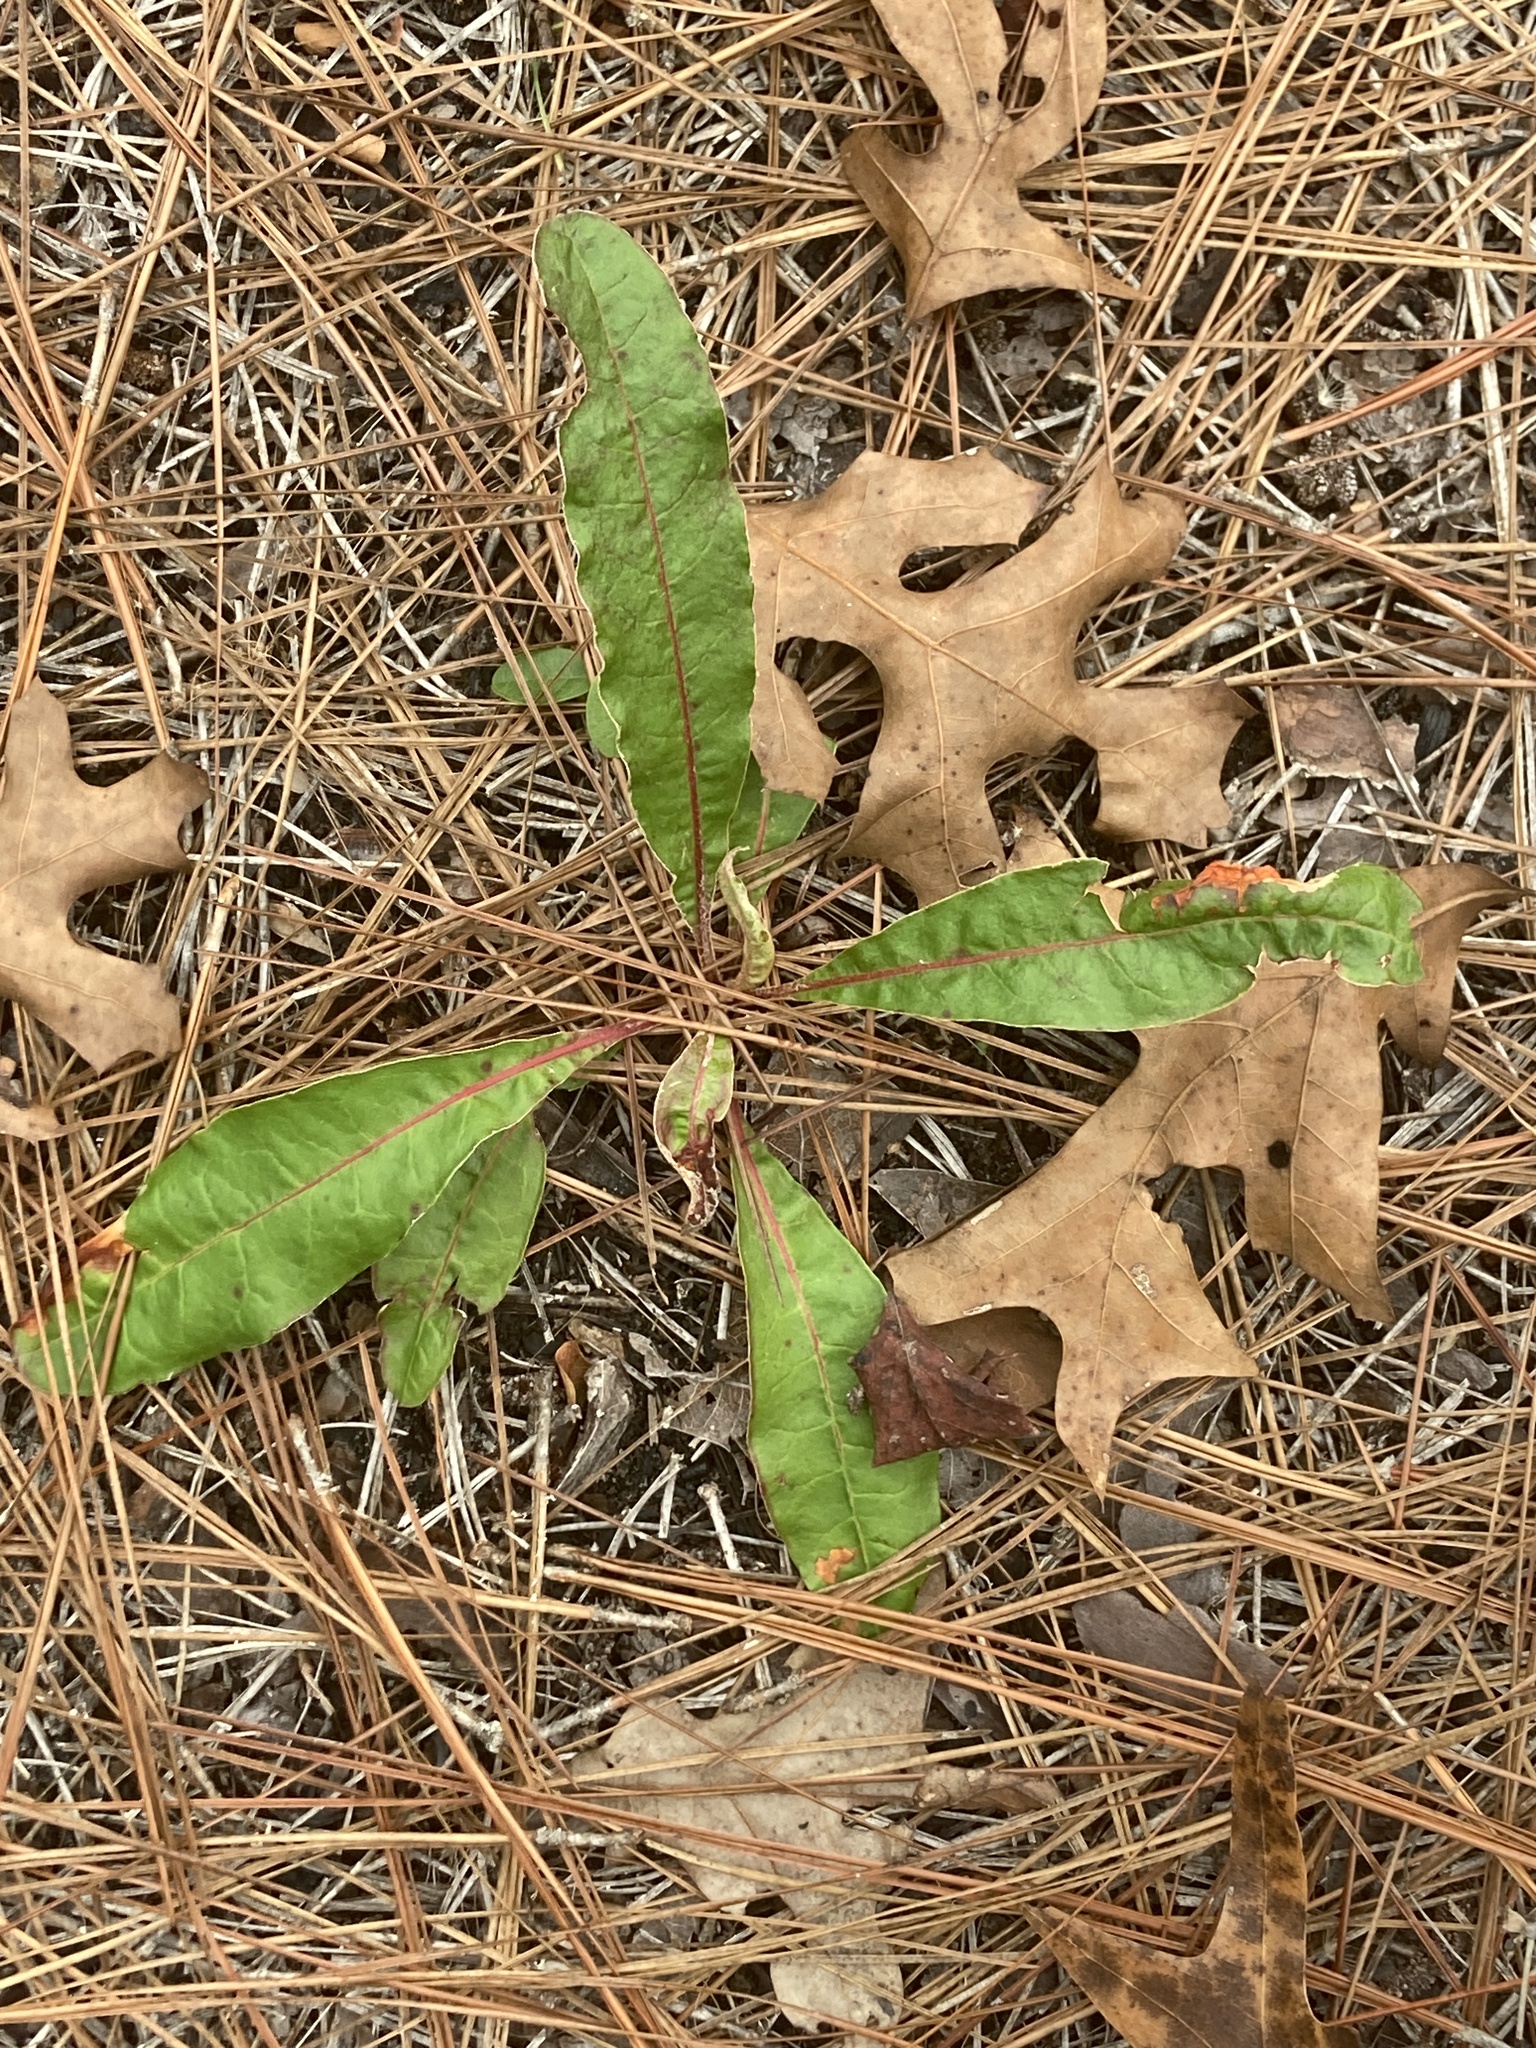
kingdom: Plantae
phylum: Tracheophyta
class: Magnoliopsida
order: Caryophyllales
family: Polygonaceae
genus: Eriogonum
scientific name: Eriogonum tomentosum
